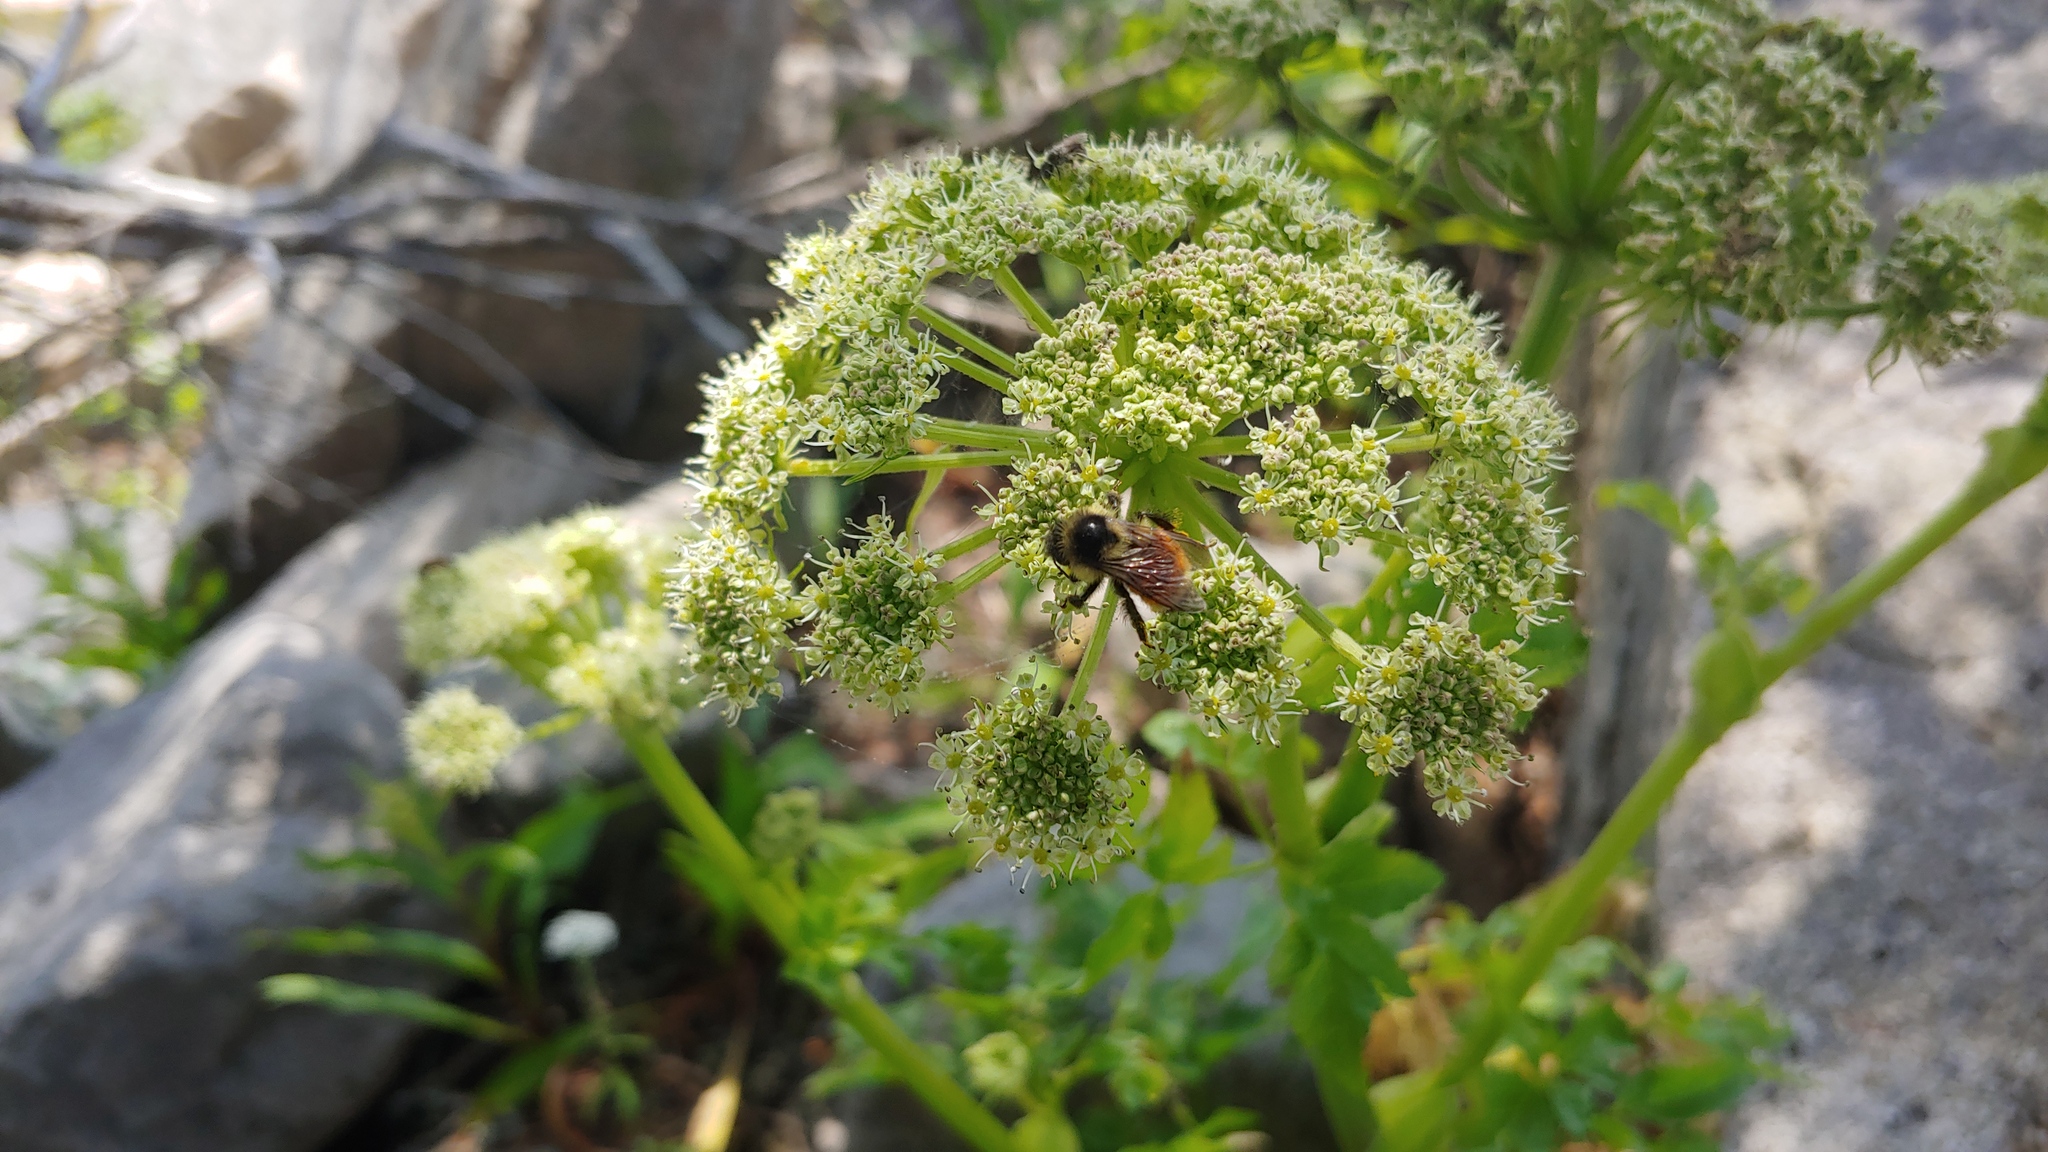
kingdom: Animalia
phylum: Arthropoda
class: Insecta
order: Hymenoptera
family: Apidae
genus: Bombus
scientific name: Bombus ternarius
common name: Tri-colored bumble bee
